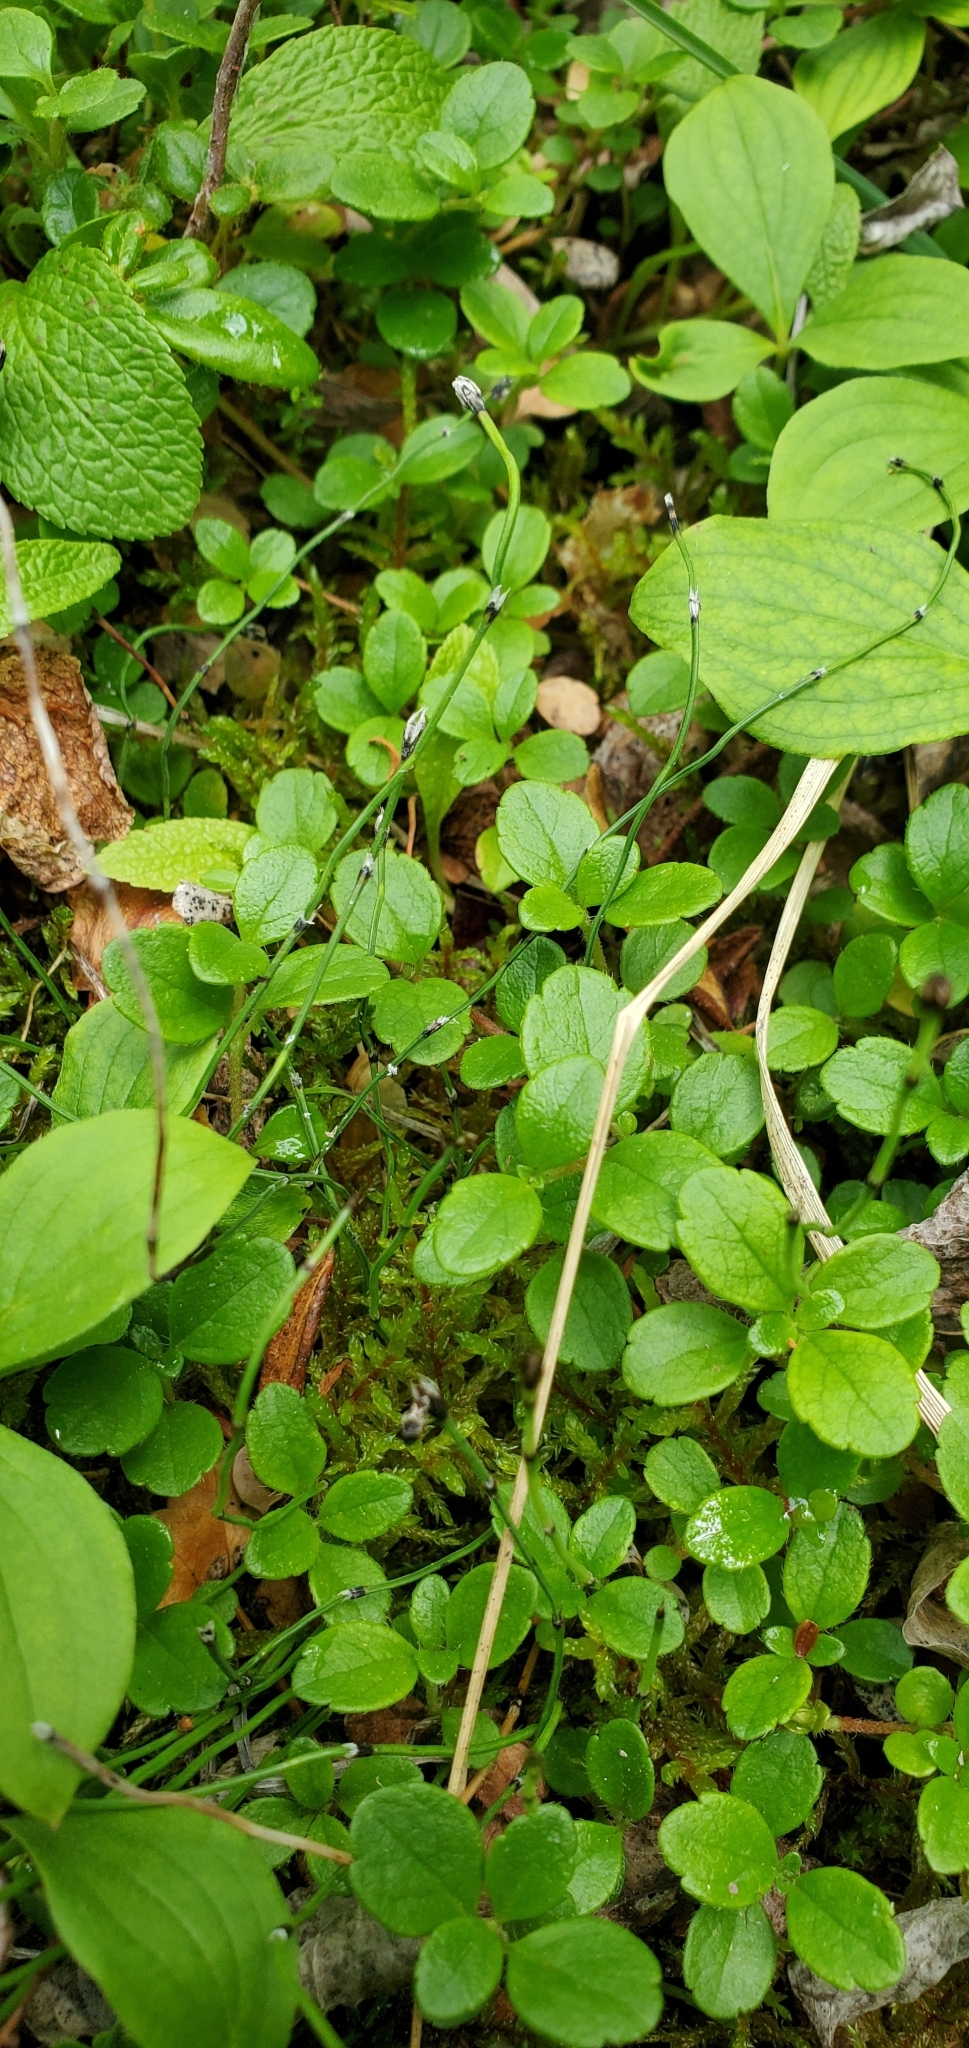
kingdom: Plantae
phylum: Tracheophyta
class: Polypodiopsida
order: Equisetales
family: Equisetaceae
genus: Equisetum
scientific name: Equisetum scirpoides
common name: Delicate horsetail
